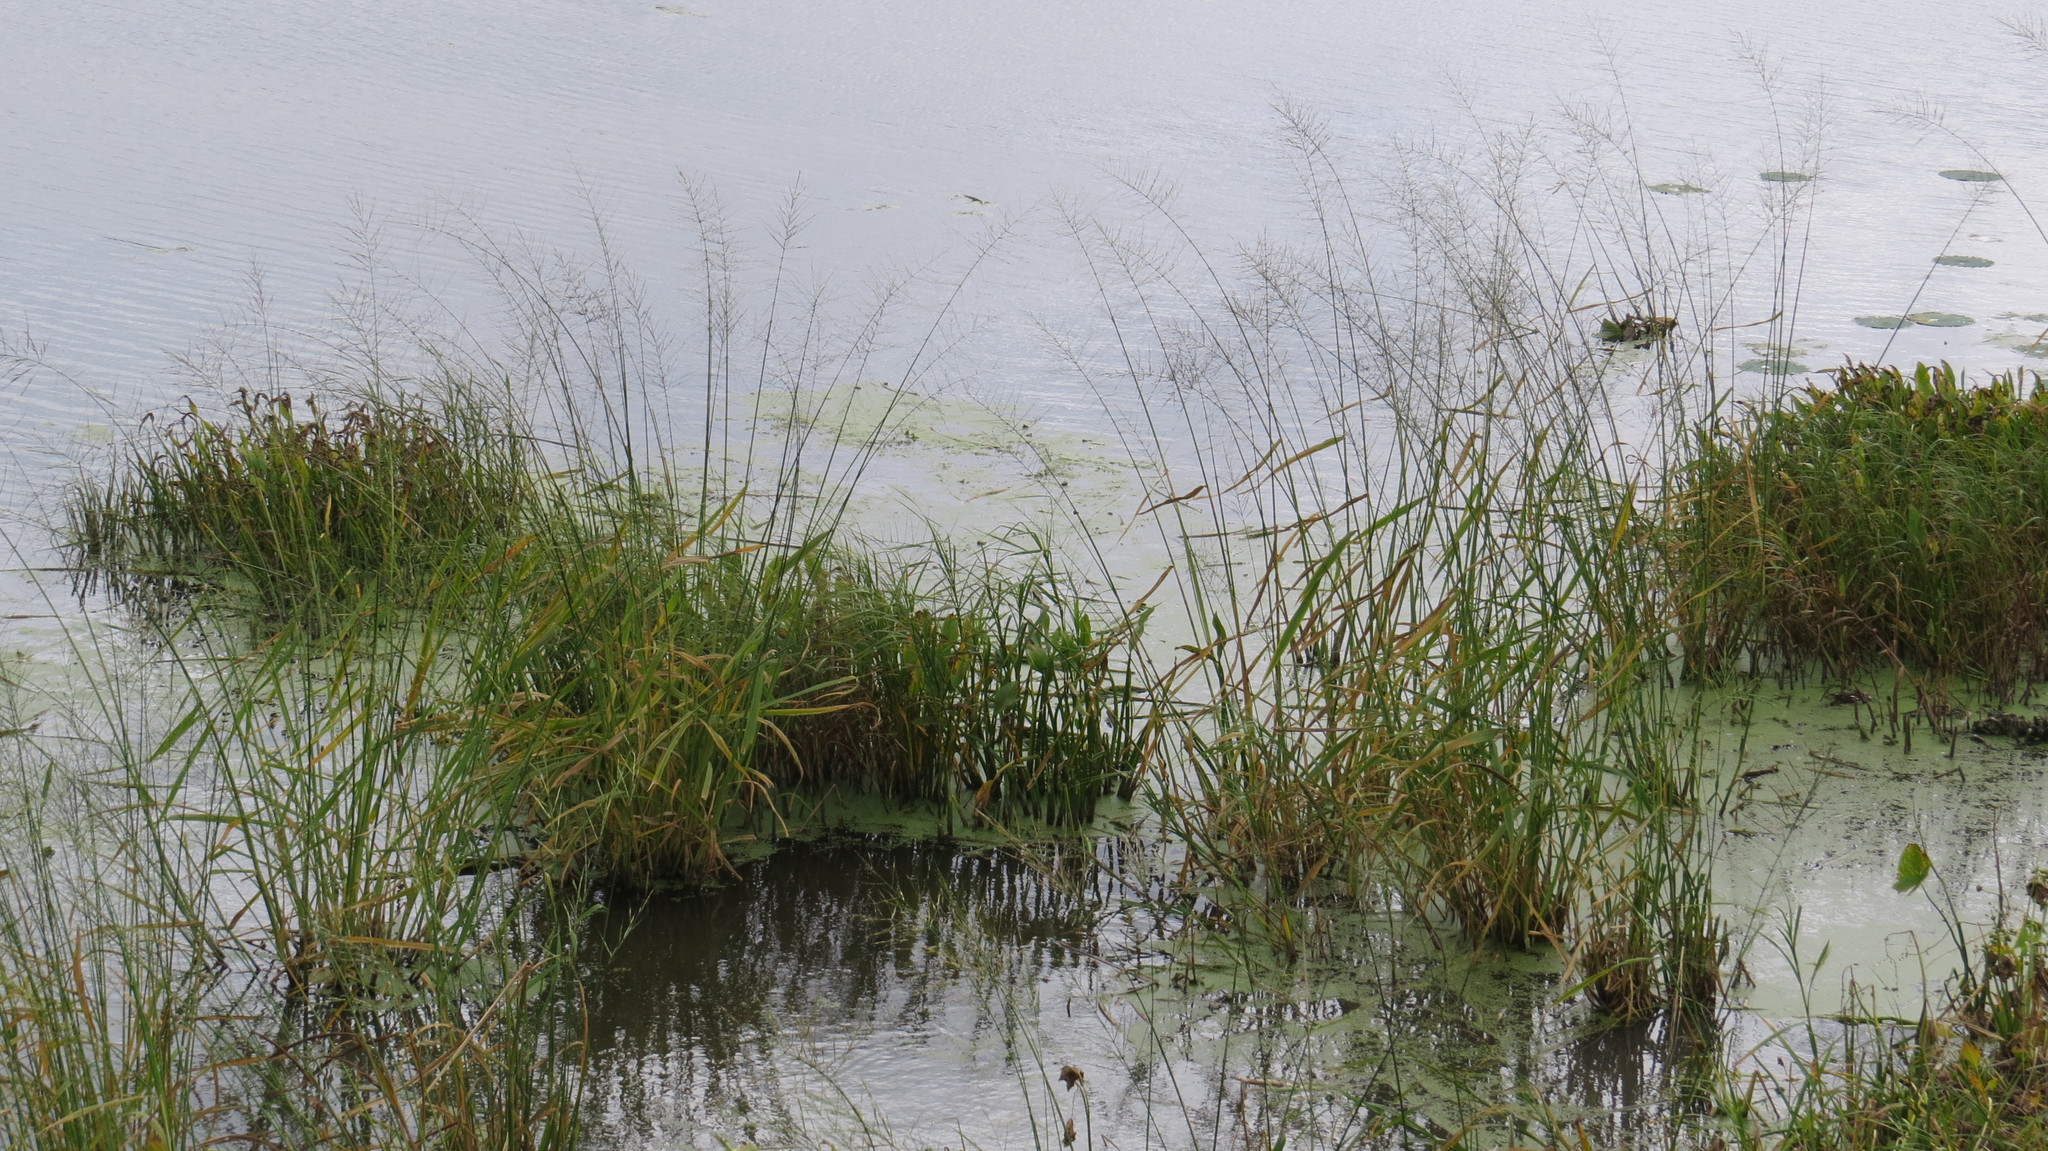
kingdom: Plantae
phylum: Tracheophyta
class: Liliopsida
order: Poales
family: Poaceae
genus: Zizania
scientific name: Zizania palustris
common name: Northern wild rice
